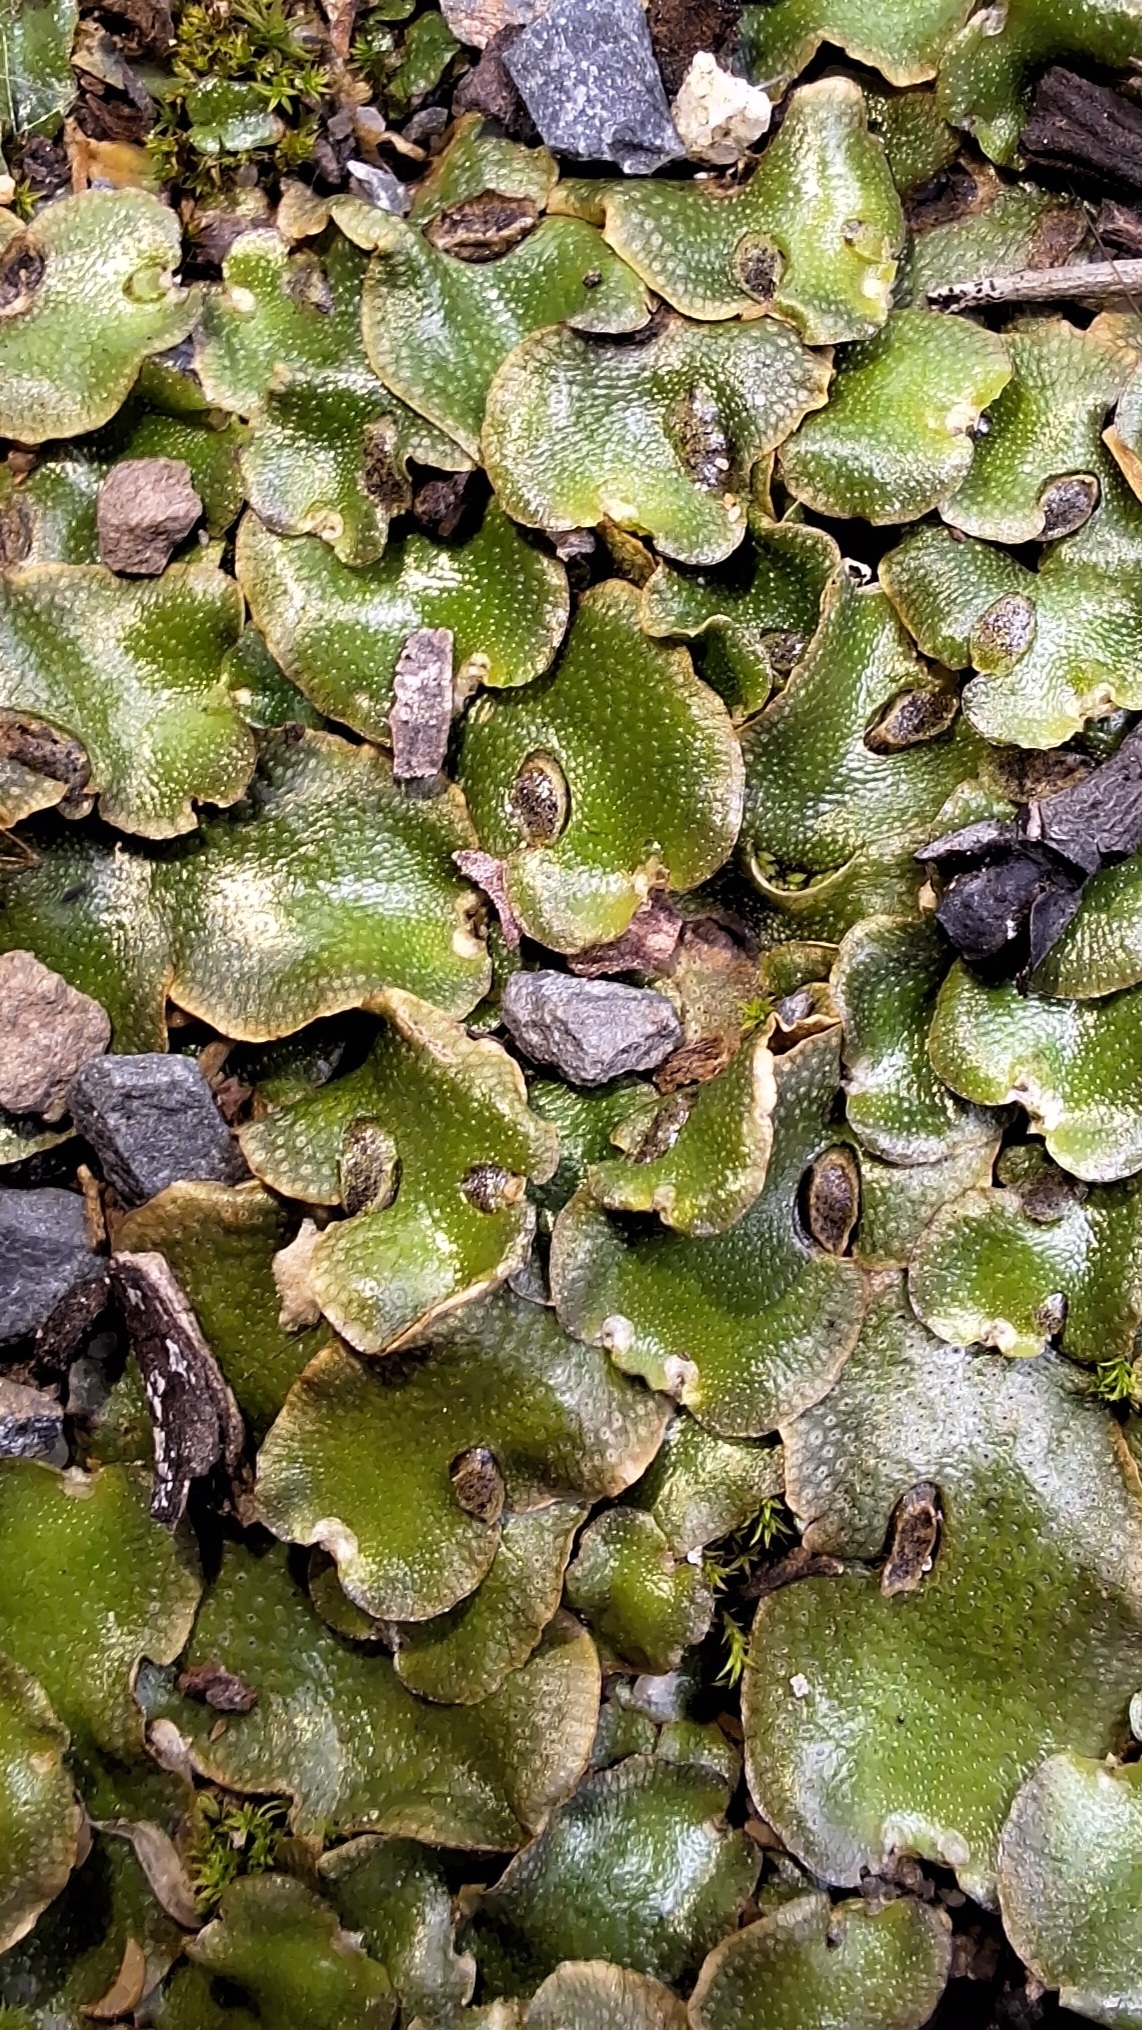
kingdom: Plantae
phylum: Marchantiophyta
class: Marchantiopsida
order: Lunulariales
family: Lunulariaceae
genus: Lunularia
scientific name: Lunularia cruciata
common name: Crescent-cup liverwort
